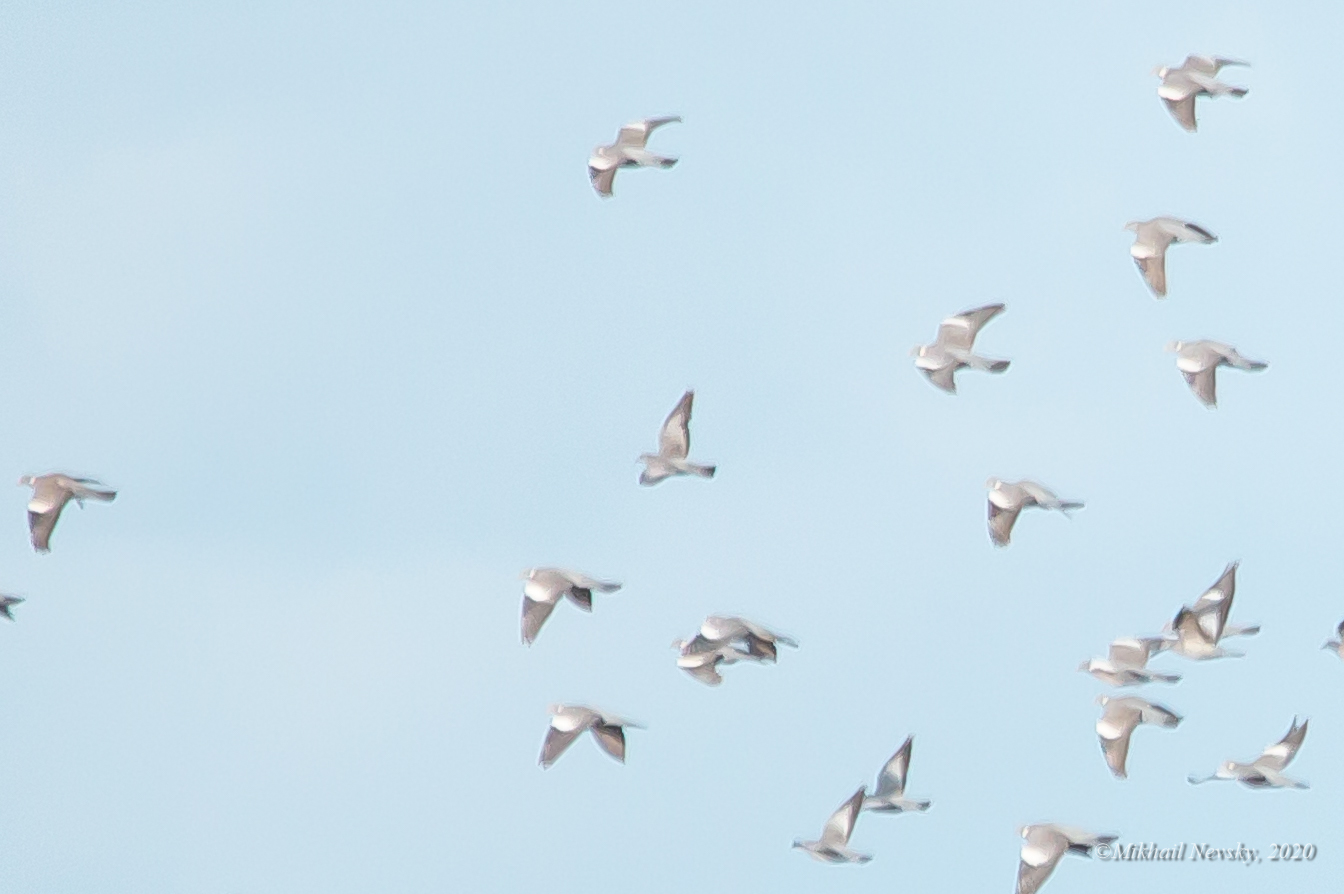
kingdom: Animalia
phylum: Chordata
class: Aves
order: Columbiformes
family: Columbidae
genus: Columba
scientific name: Columba oenas
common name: Stock dove
